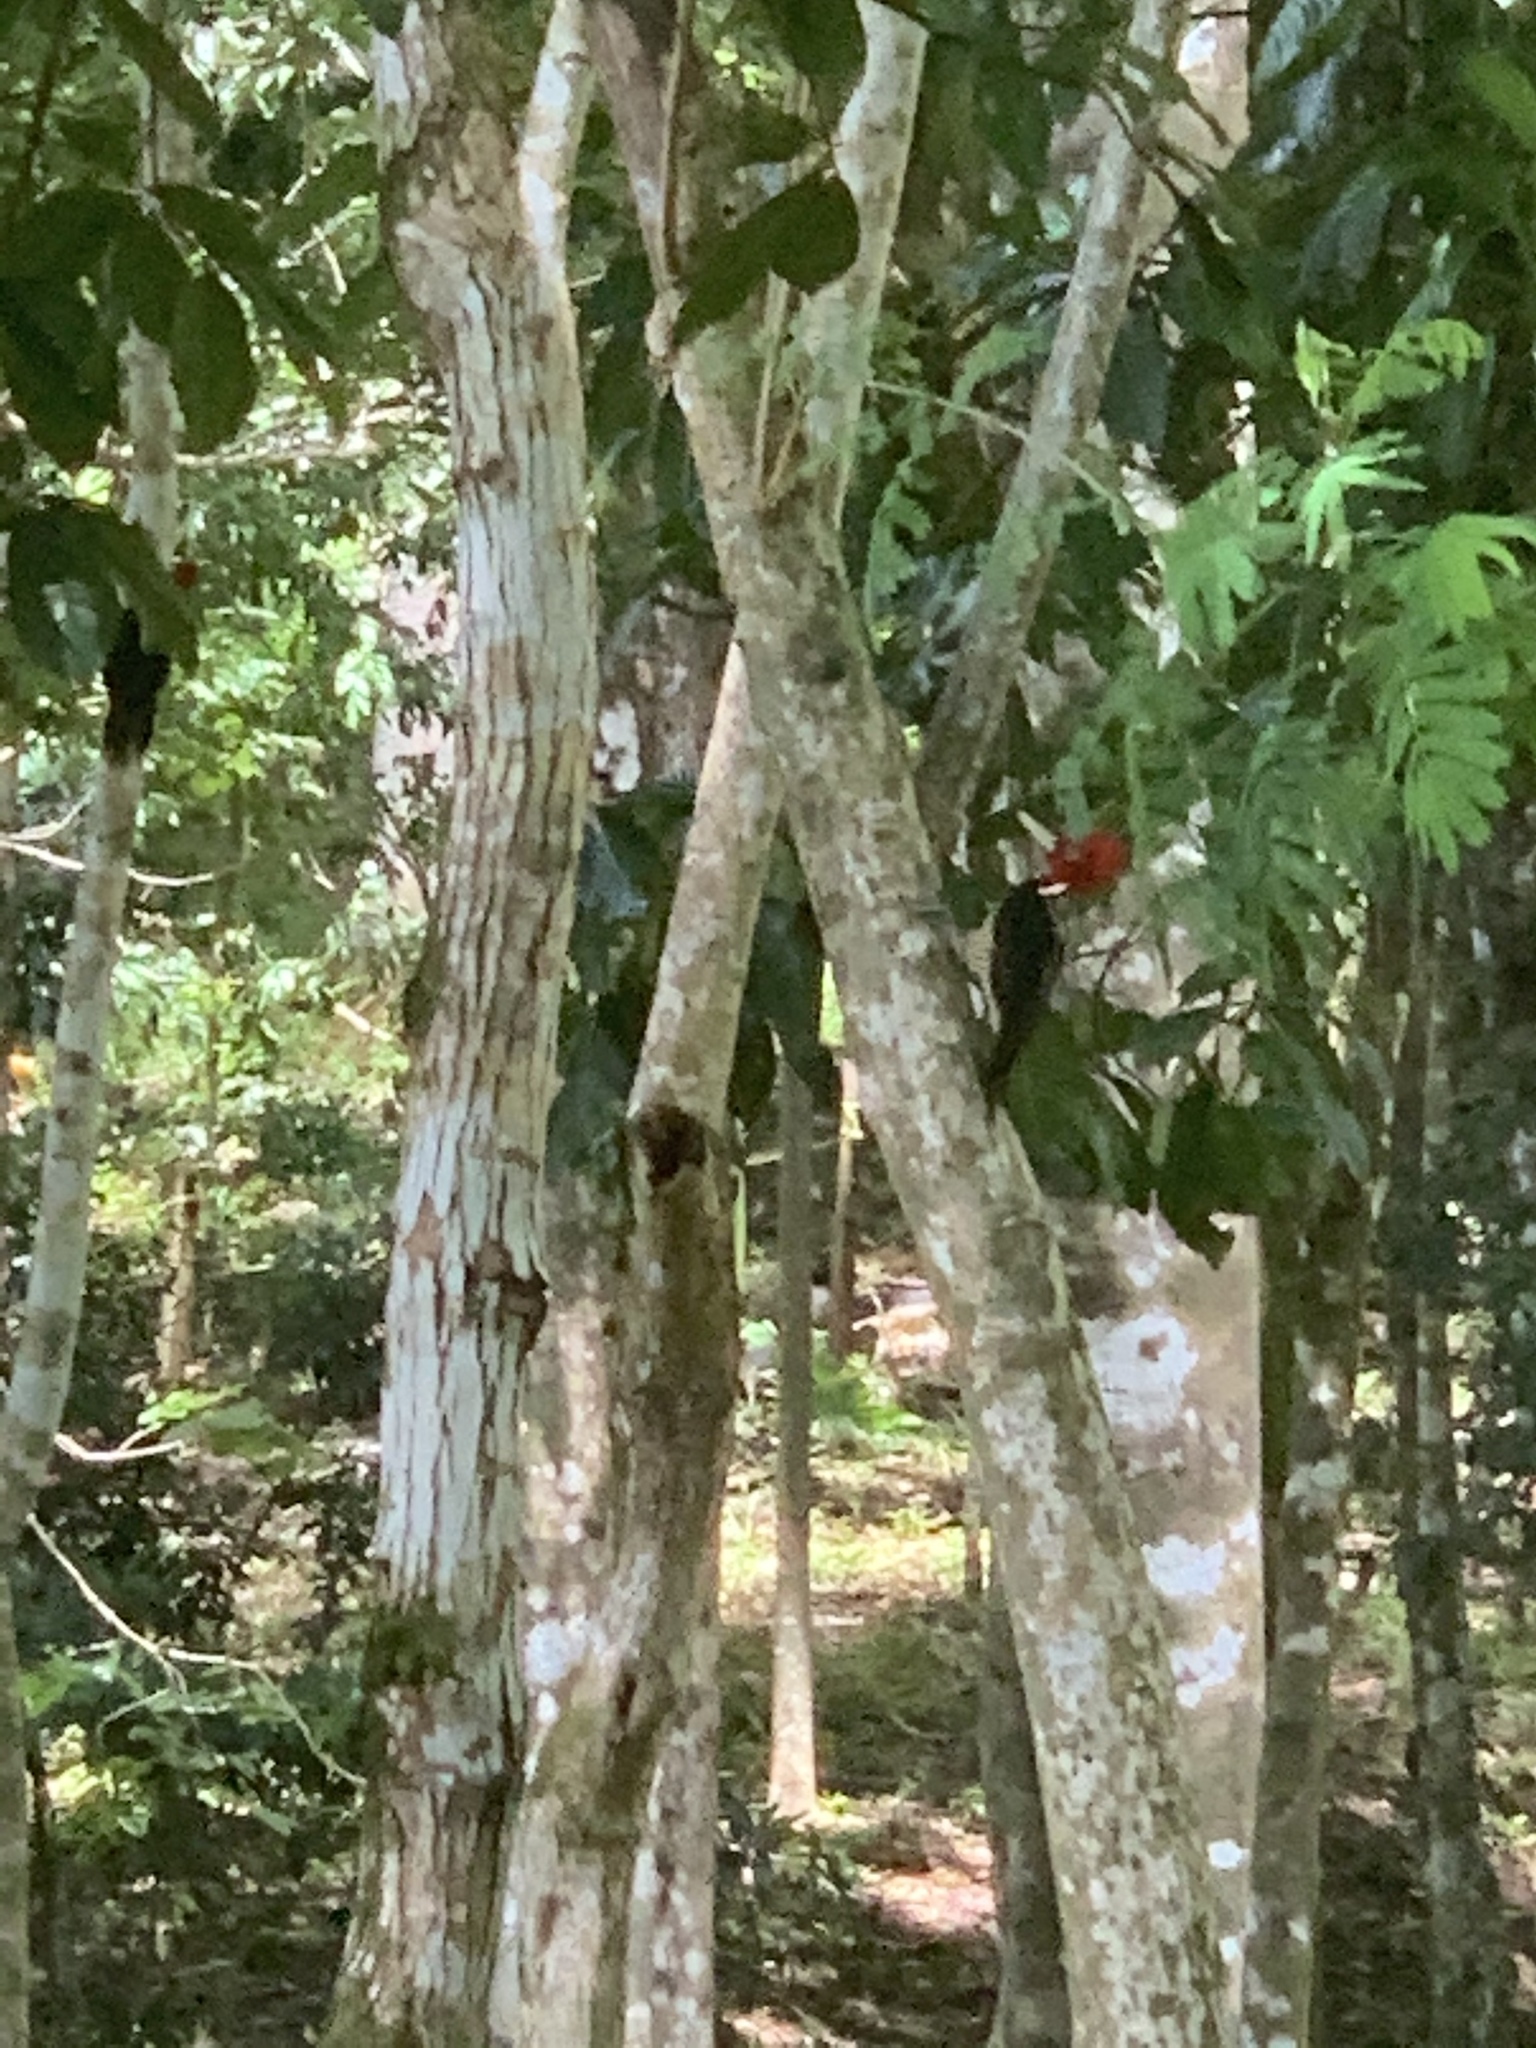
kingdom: Animalia
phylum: Chordata
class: Aves
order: Piciformes
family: Picidae
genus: Campephilus
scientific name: Campephilus guatemalensis
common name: Pale-billed woodpecker
